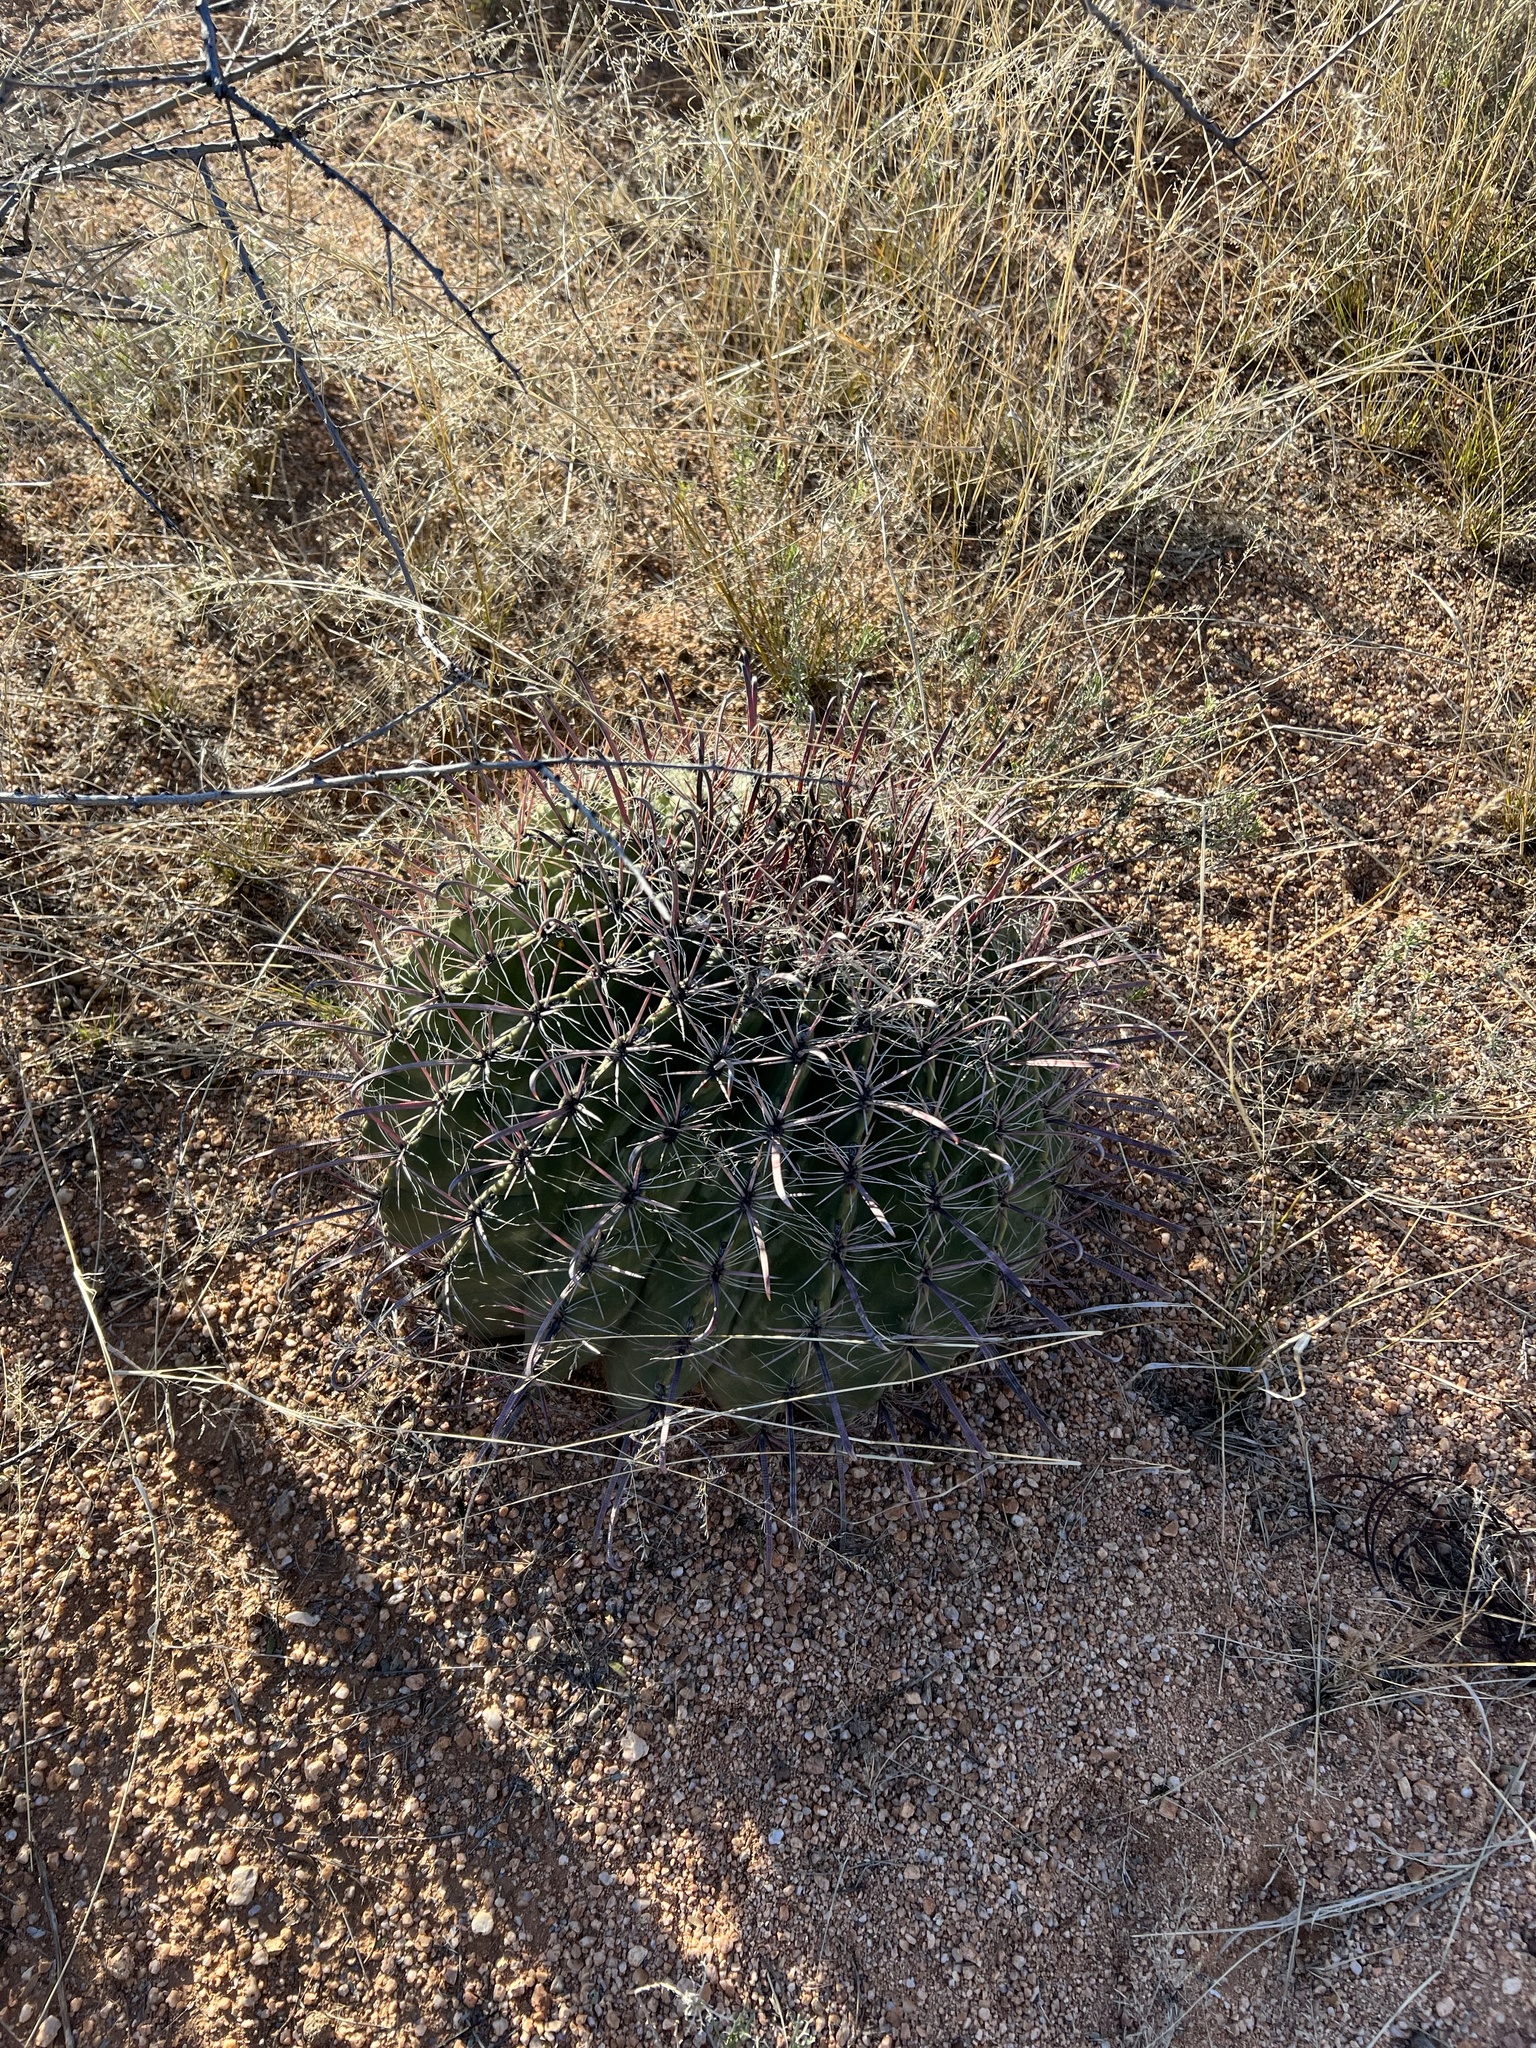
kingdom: Plantae
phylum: Tracheophyta
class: Magnoliopsida
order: Caryophyllales
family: Cactaceae
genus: Ferocactus
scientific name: Ferocactus wislizeni
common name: Candy barrel cactus
